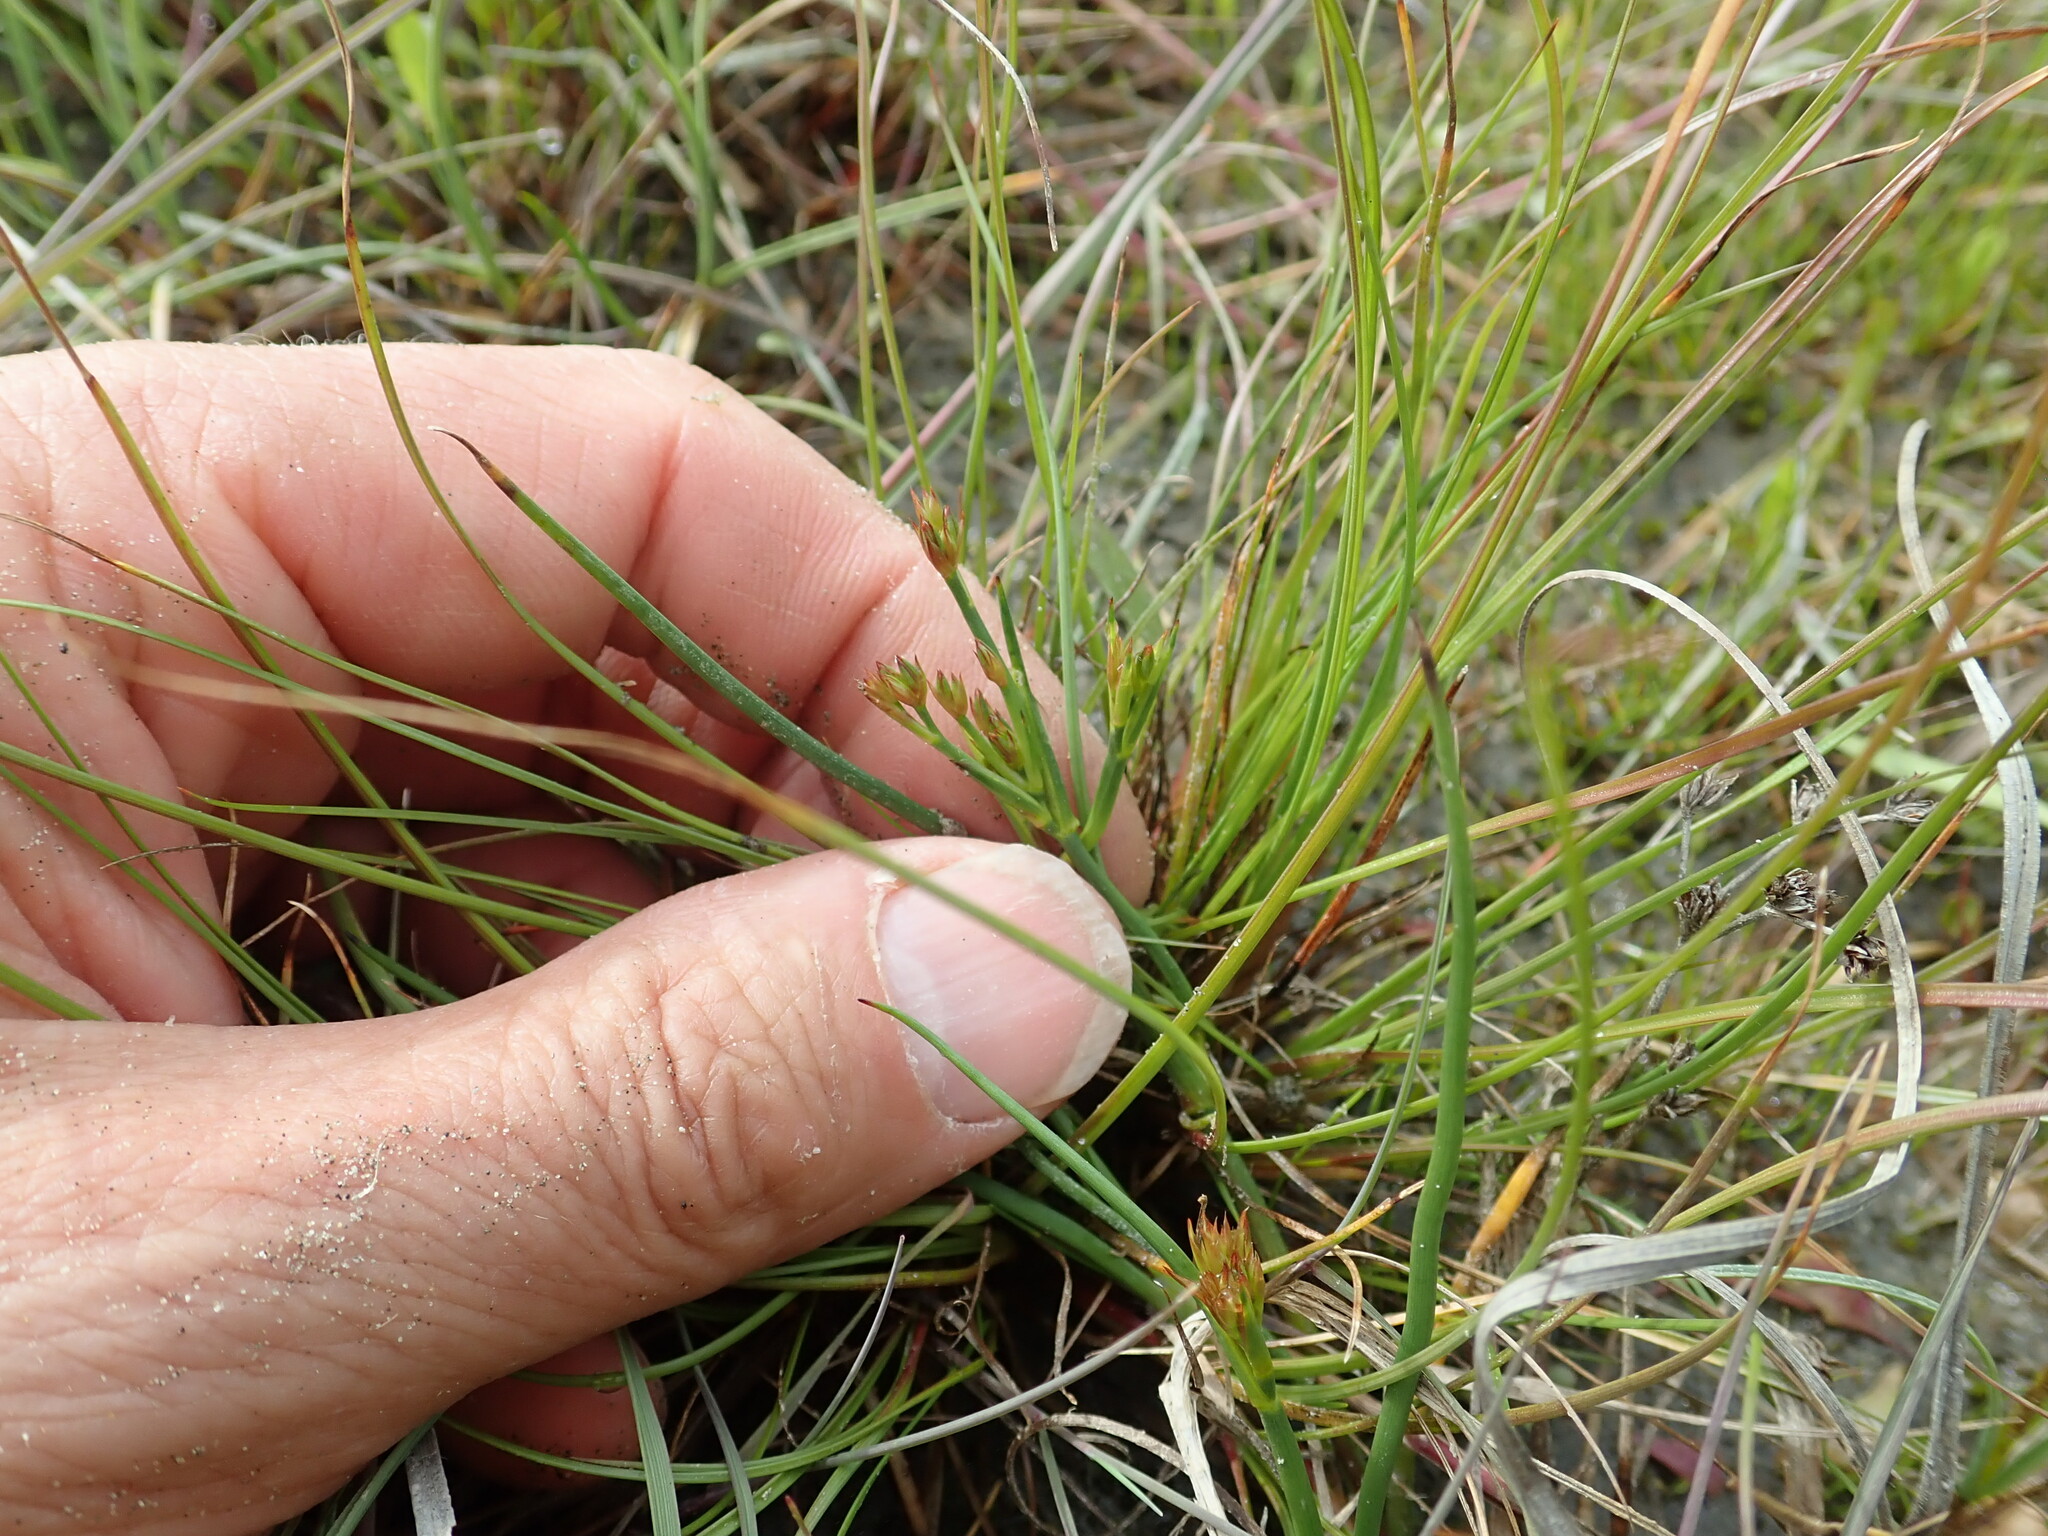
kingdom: Plantae
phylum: Tracheophyta
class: Liliopsida
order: Poales
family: Juncaceae
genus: Juncus
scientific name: Juncus articulatus
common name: Jointed rush
